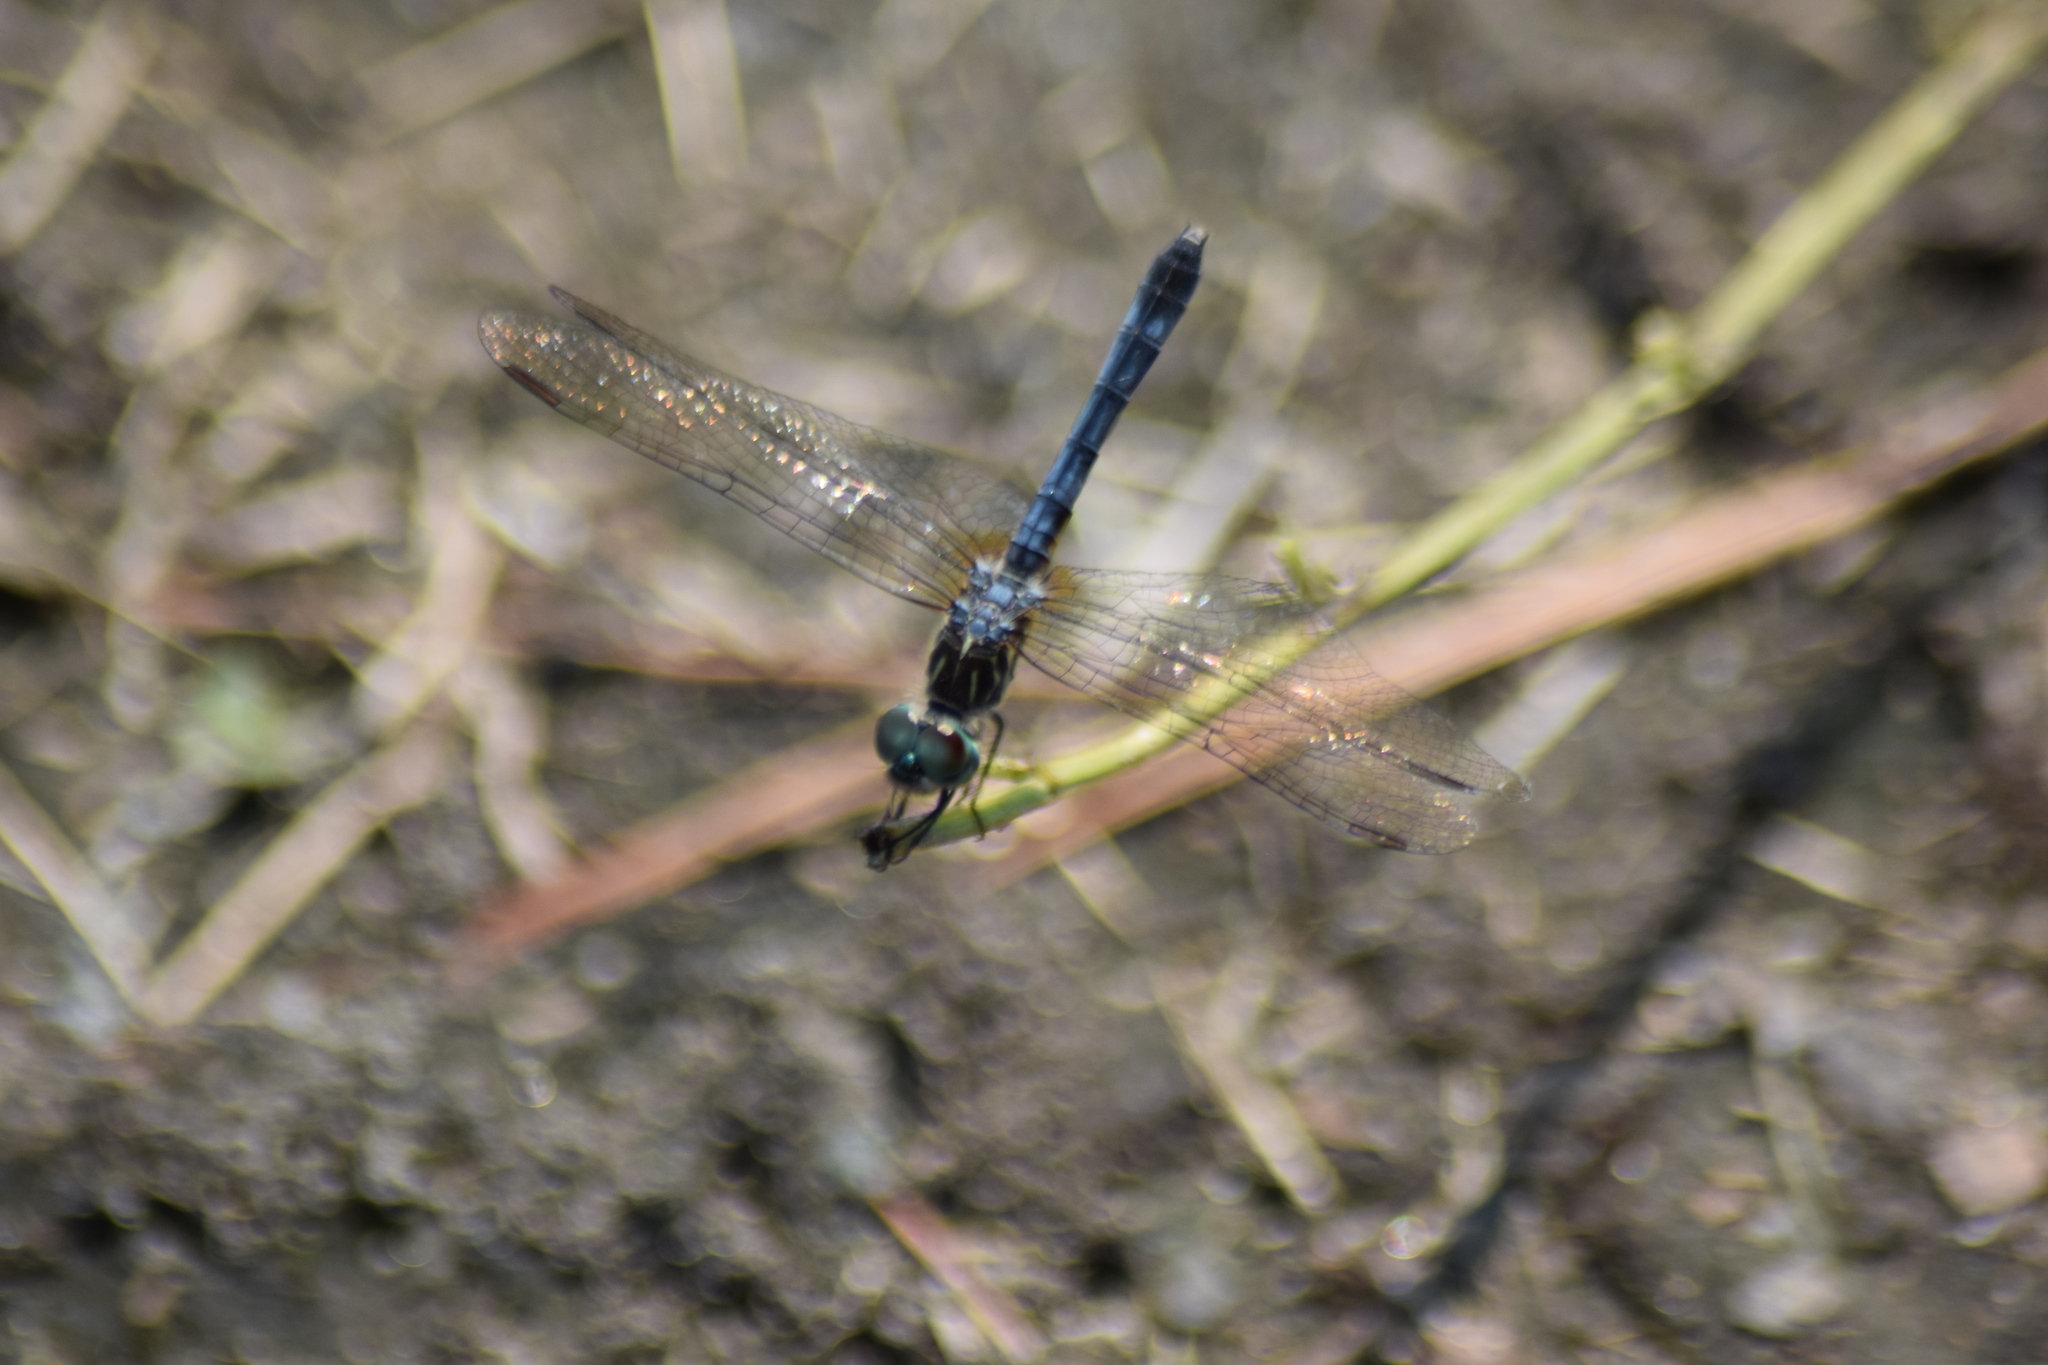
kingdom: Animalia
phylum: Arthropoda
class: Insecta
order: Odonata
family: Libellulidae
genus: Pachydiplax
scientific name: Pachydiplax longipennis
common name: Blue dasher
